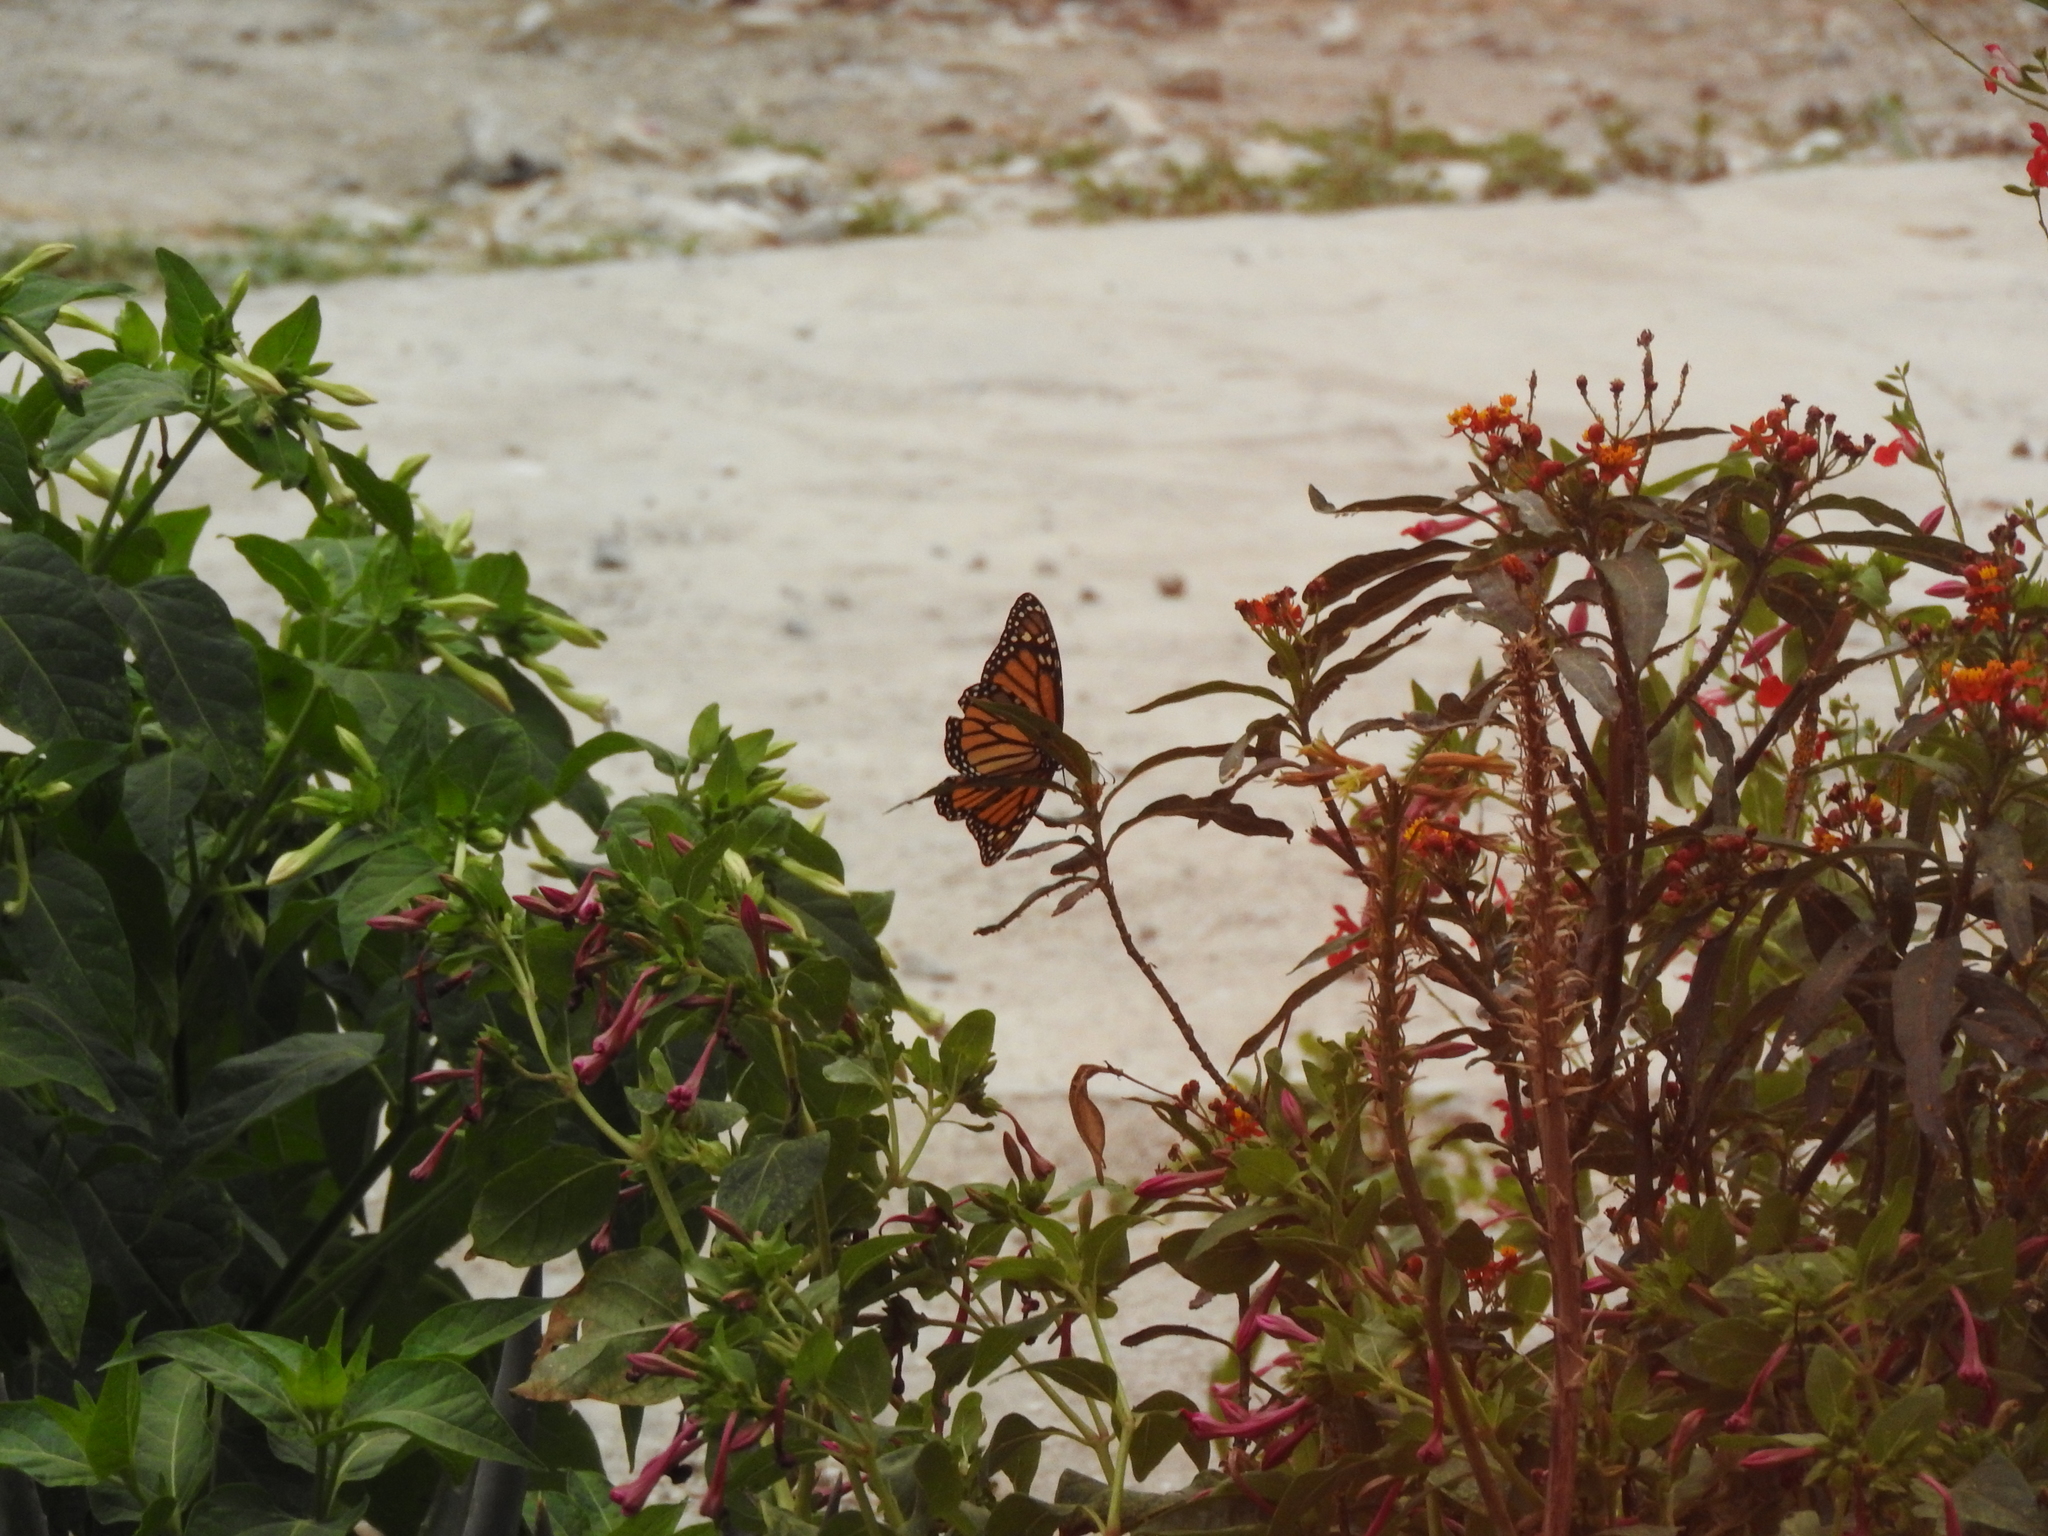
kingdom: Animalia
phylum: Arthropoda
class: Insecta
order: Lepidoptera
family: Nymphalidae
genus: Danaus
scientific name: Danaus plexippus
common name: Monarch
